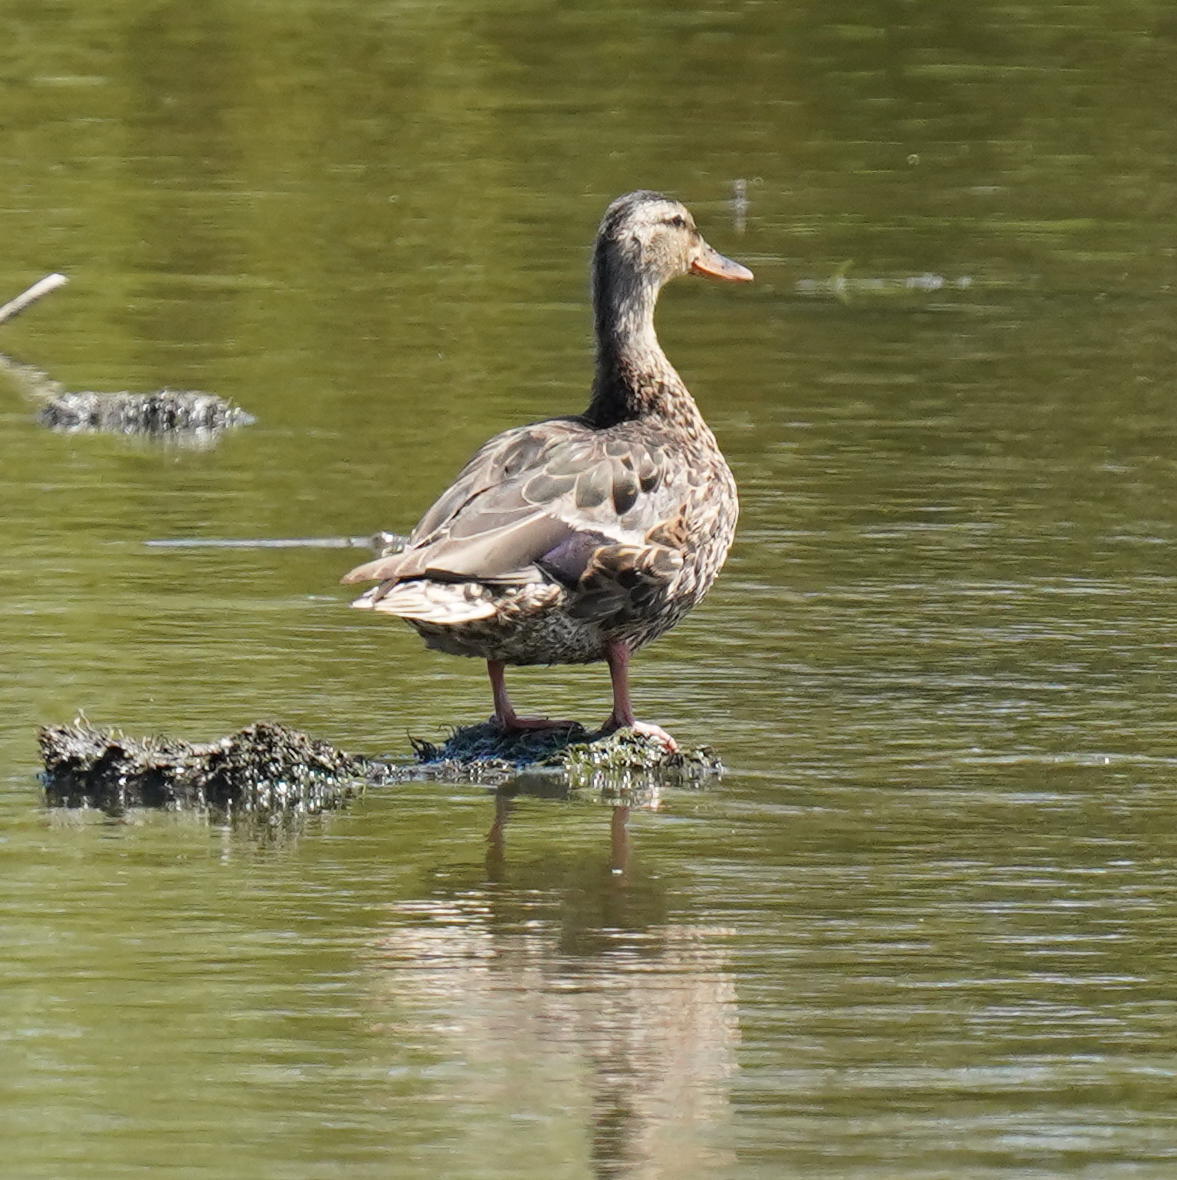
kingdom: Animalia
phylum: Chordata
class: Aves
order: Anseriformes
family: Anatidae
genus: Anas
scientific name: Anas platyrhynchos
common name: Mallard
